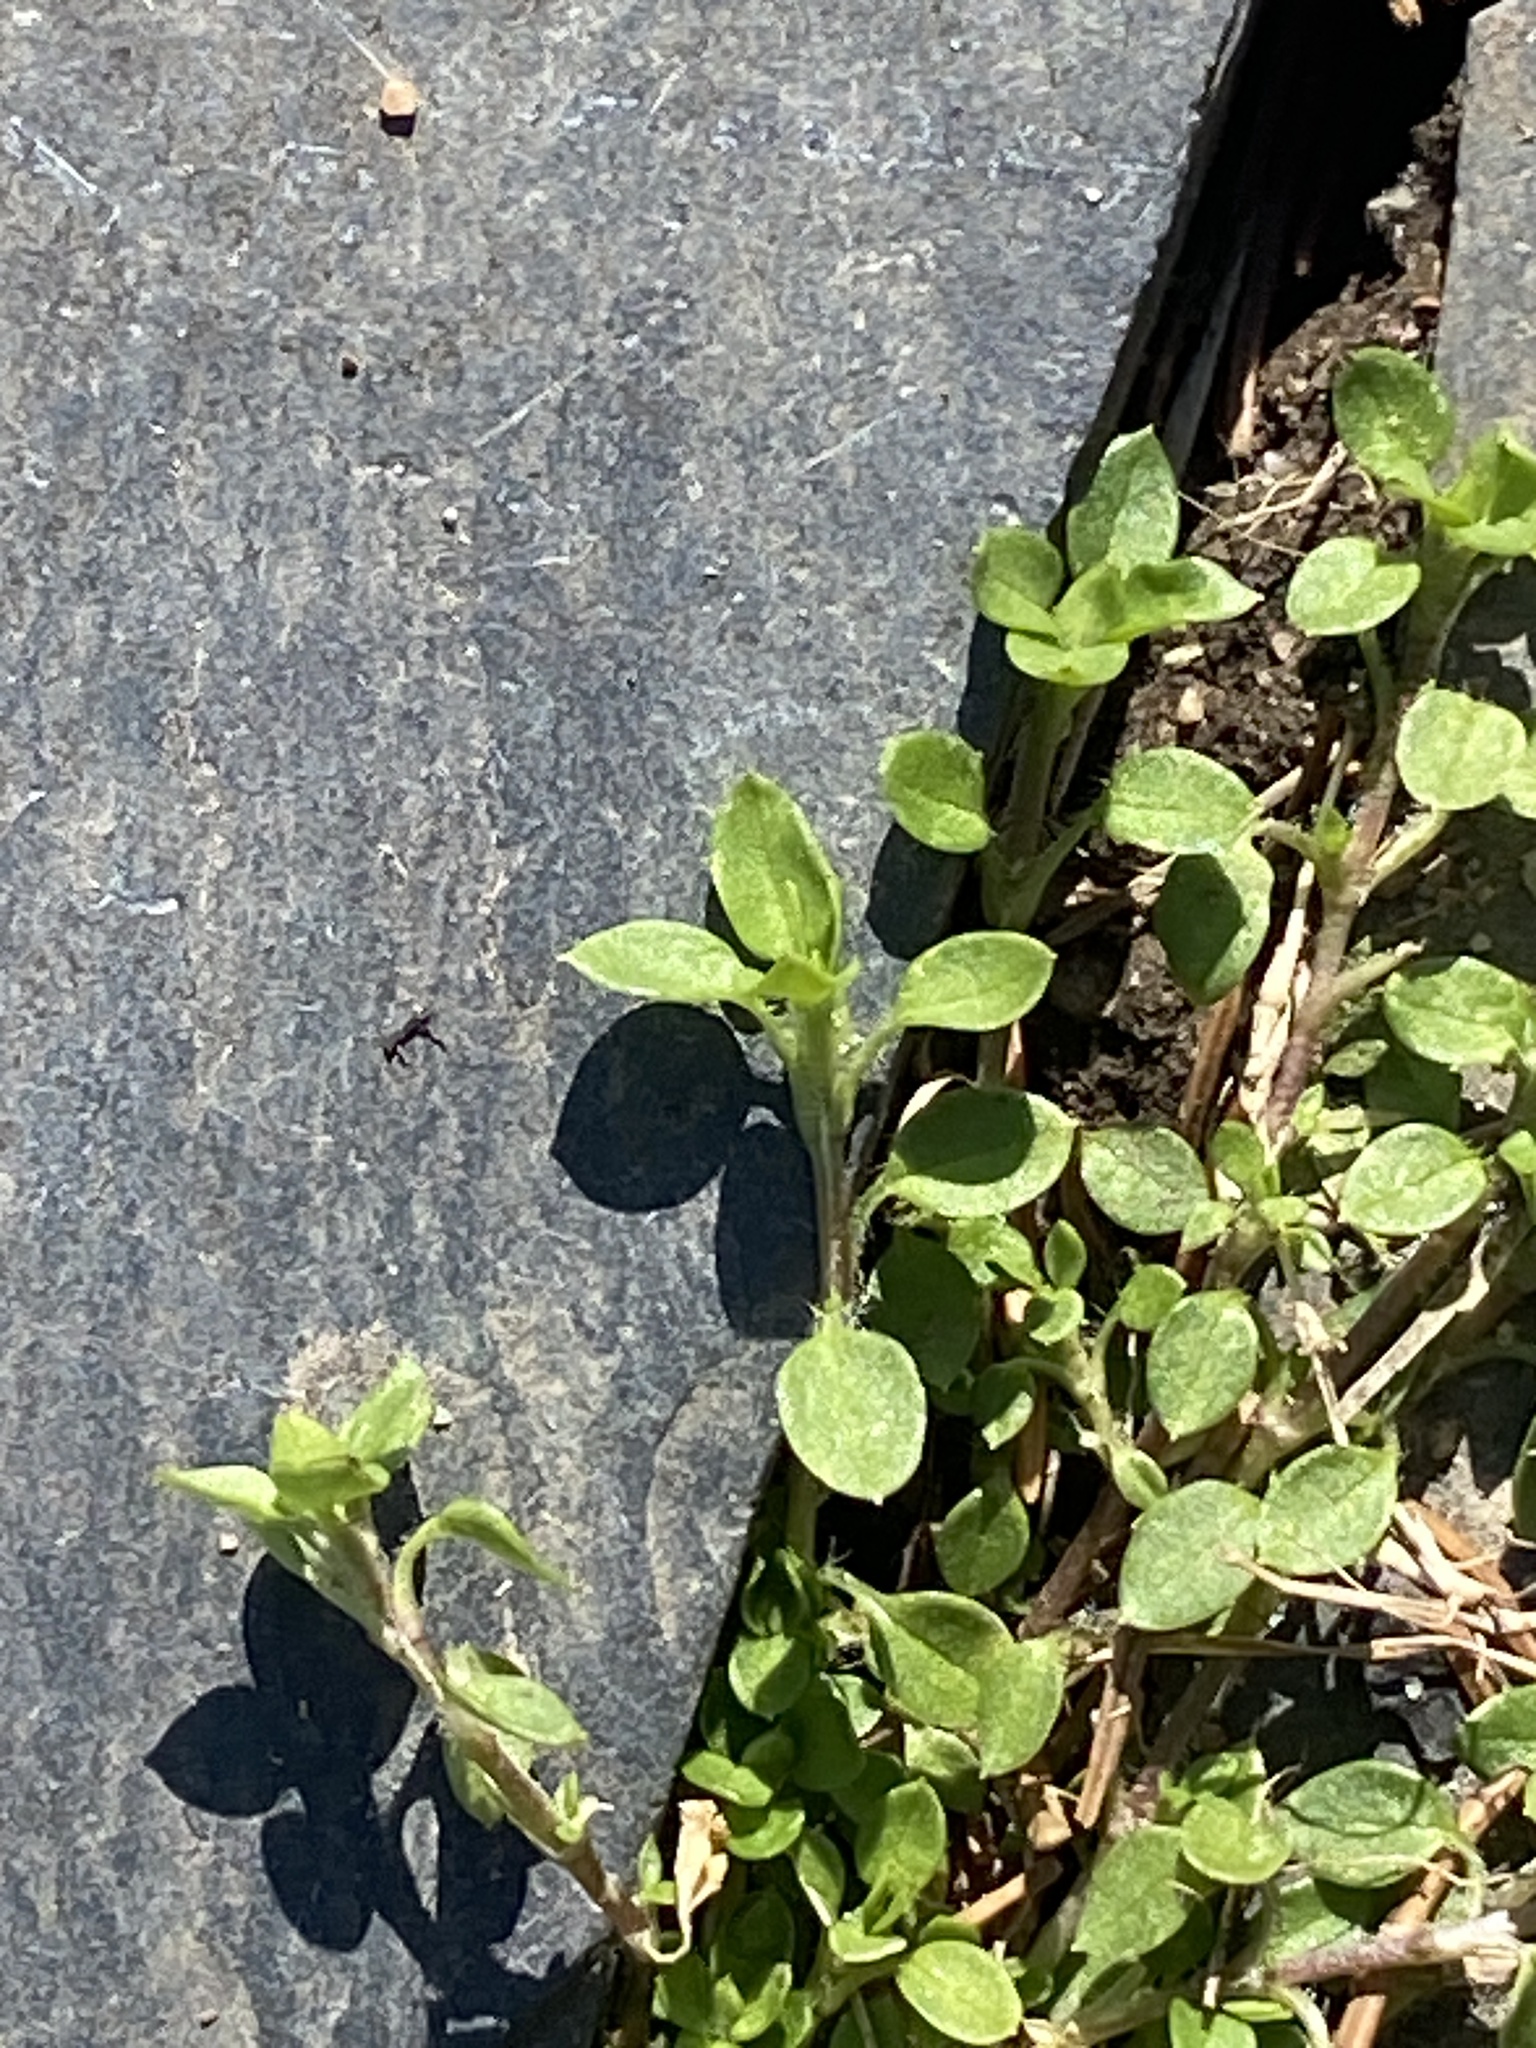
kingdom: Plantae
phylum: Tracheophyta
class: Magnoliopsida
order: Caryophyllales
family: Caryophyllaceae
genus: Stellaria
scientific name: Stellaria media
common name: Common chickweed
